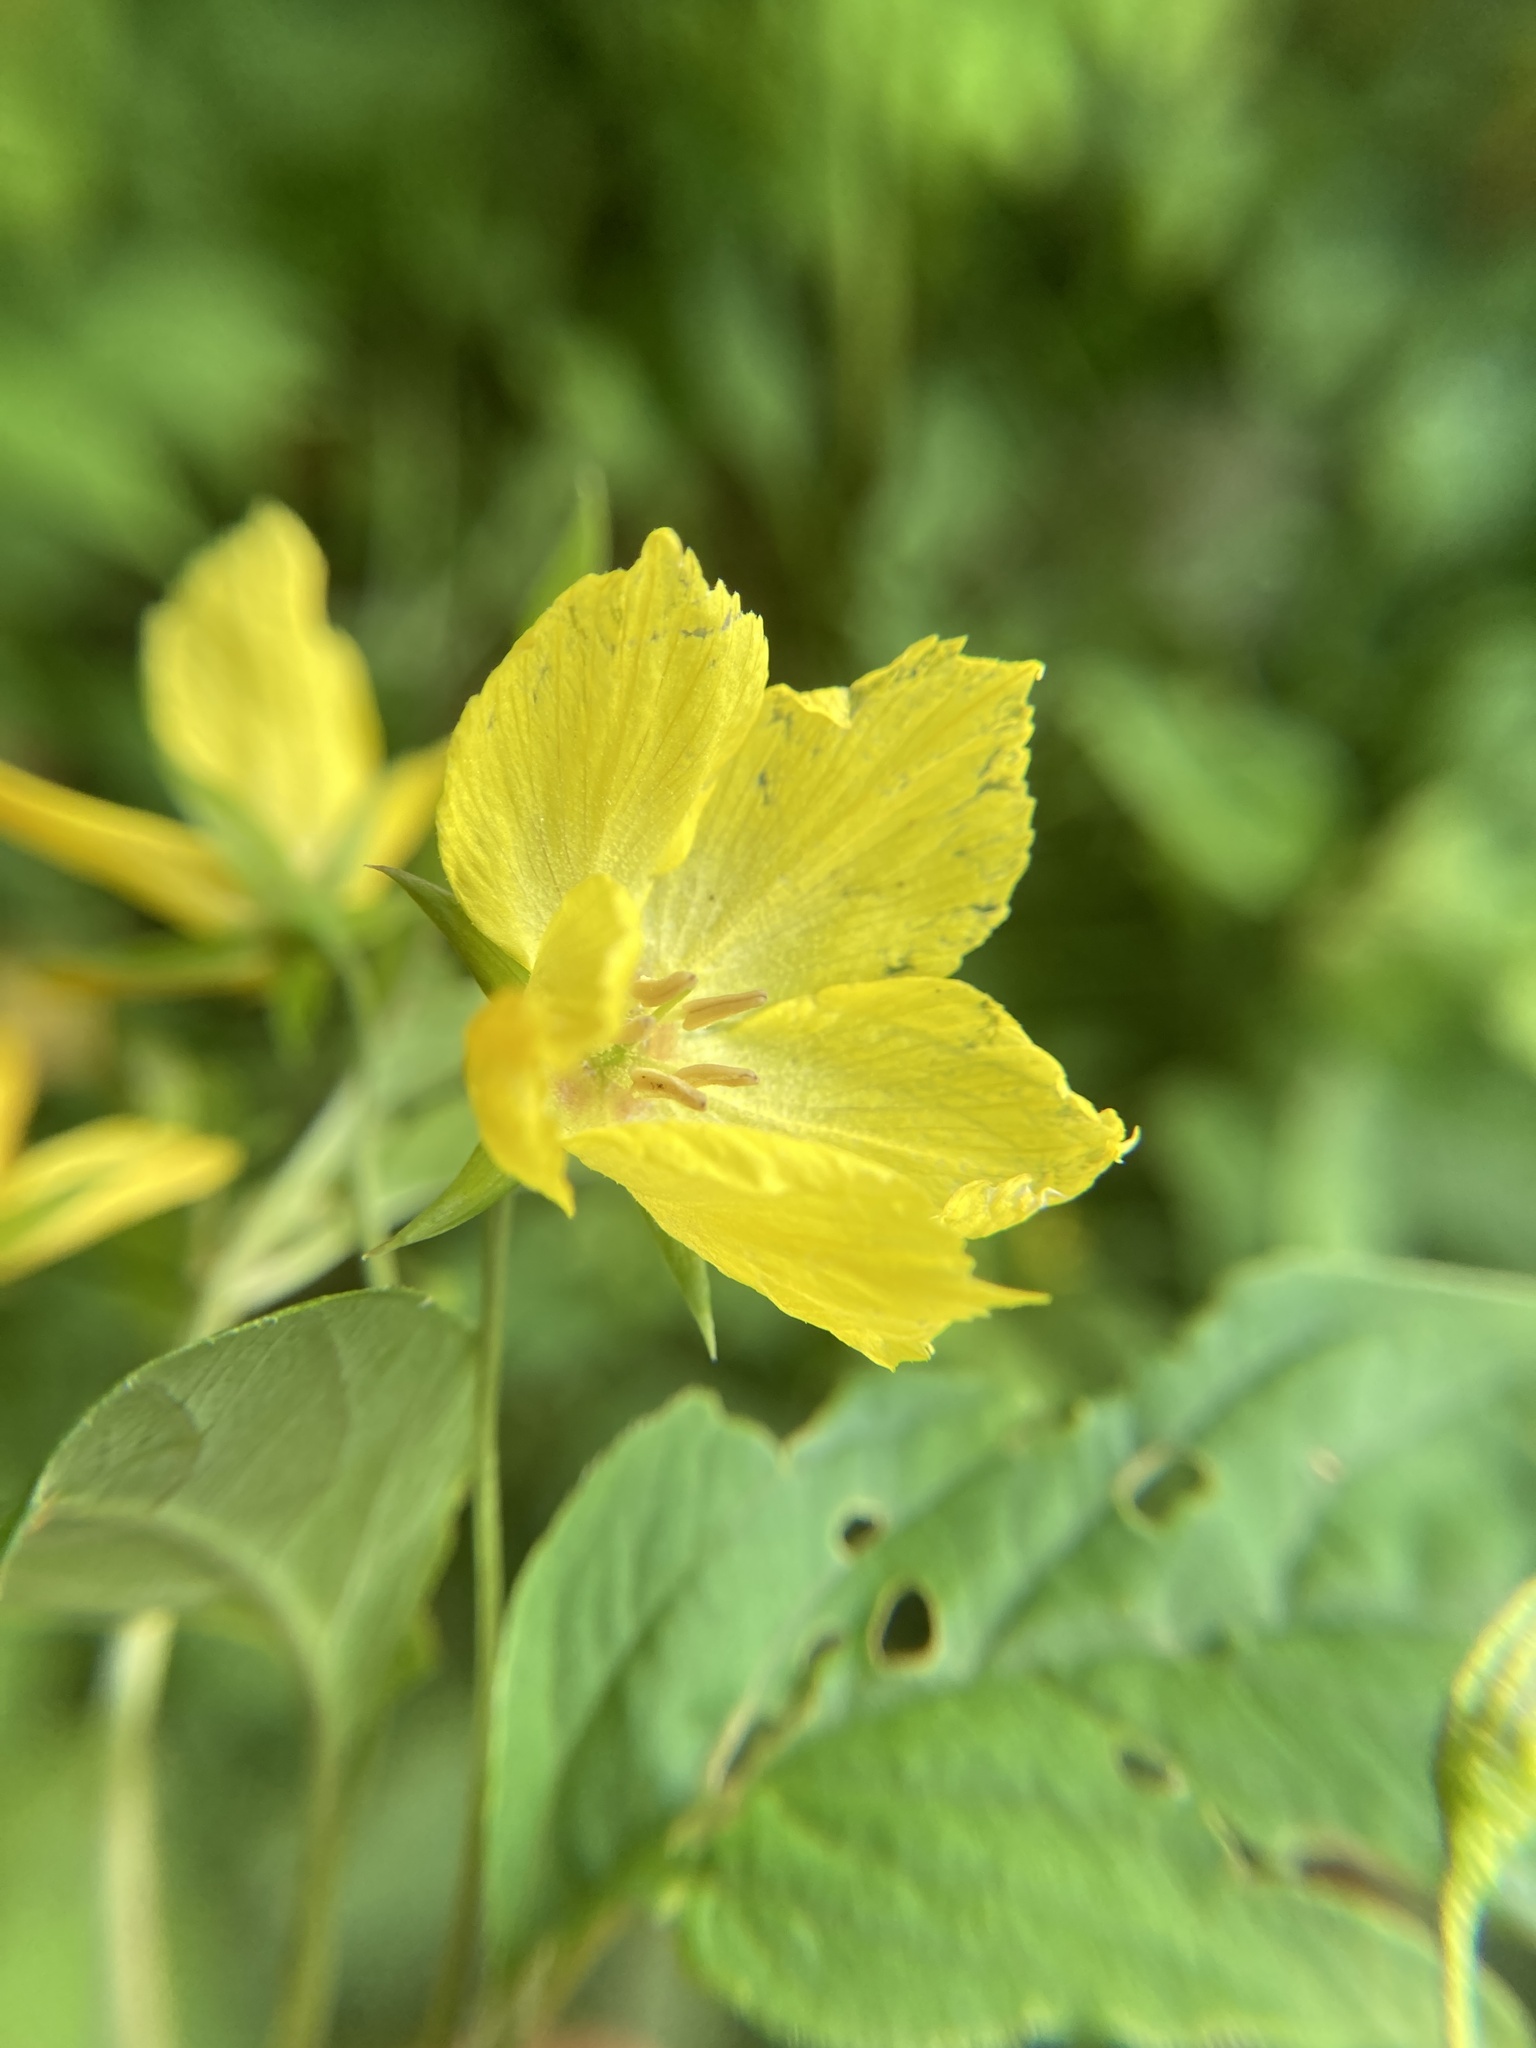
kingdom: Plantae
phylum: Tracheophyta
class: Magnoliopsida
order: Ericales
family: Primulaceae
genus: Lysimachia
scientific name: Lysimachia ciliata
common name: Fringed loosestrife
